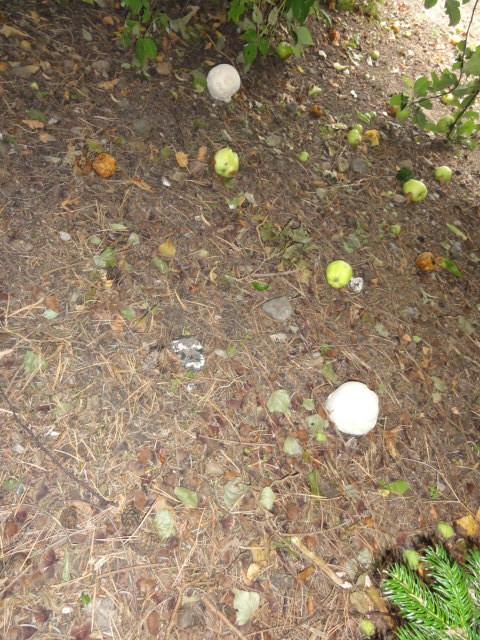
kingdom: Fungi
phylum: Basidiomycota
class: Agaricomycetes
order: Agaricales
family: Lycoperdaceae
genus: Calvatia
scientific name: Calvatia gigantea
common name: Giant puffball
